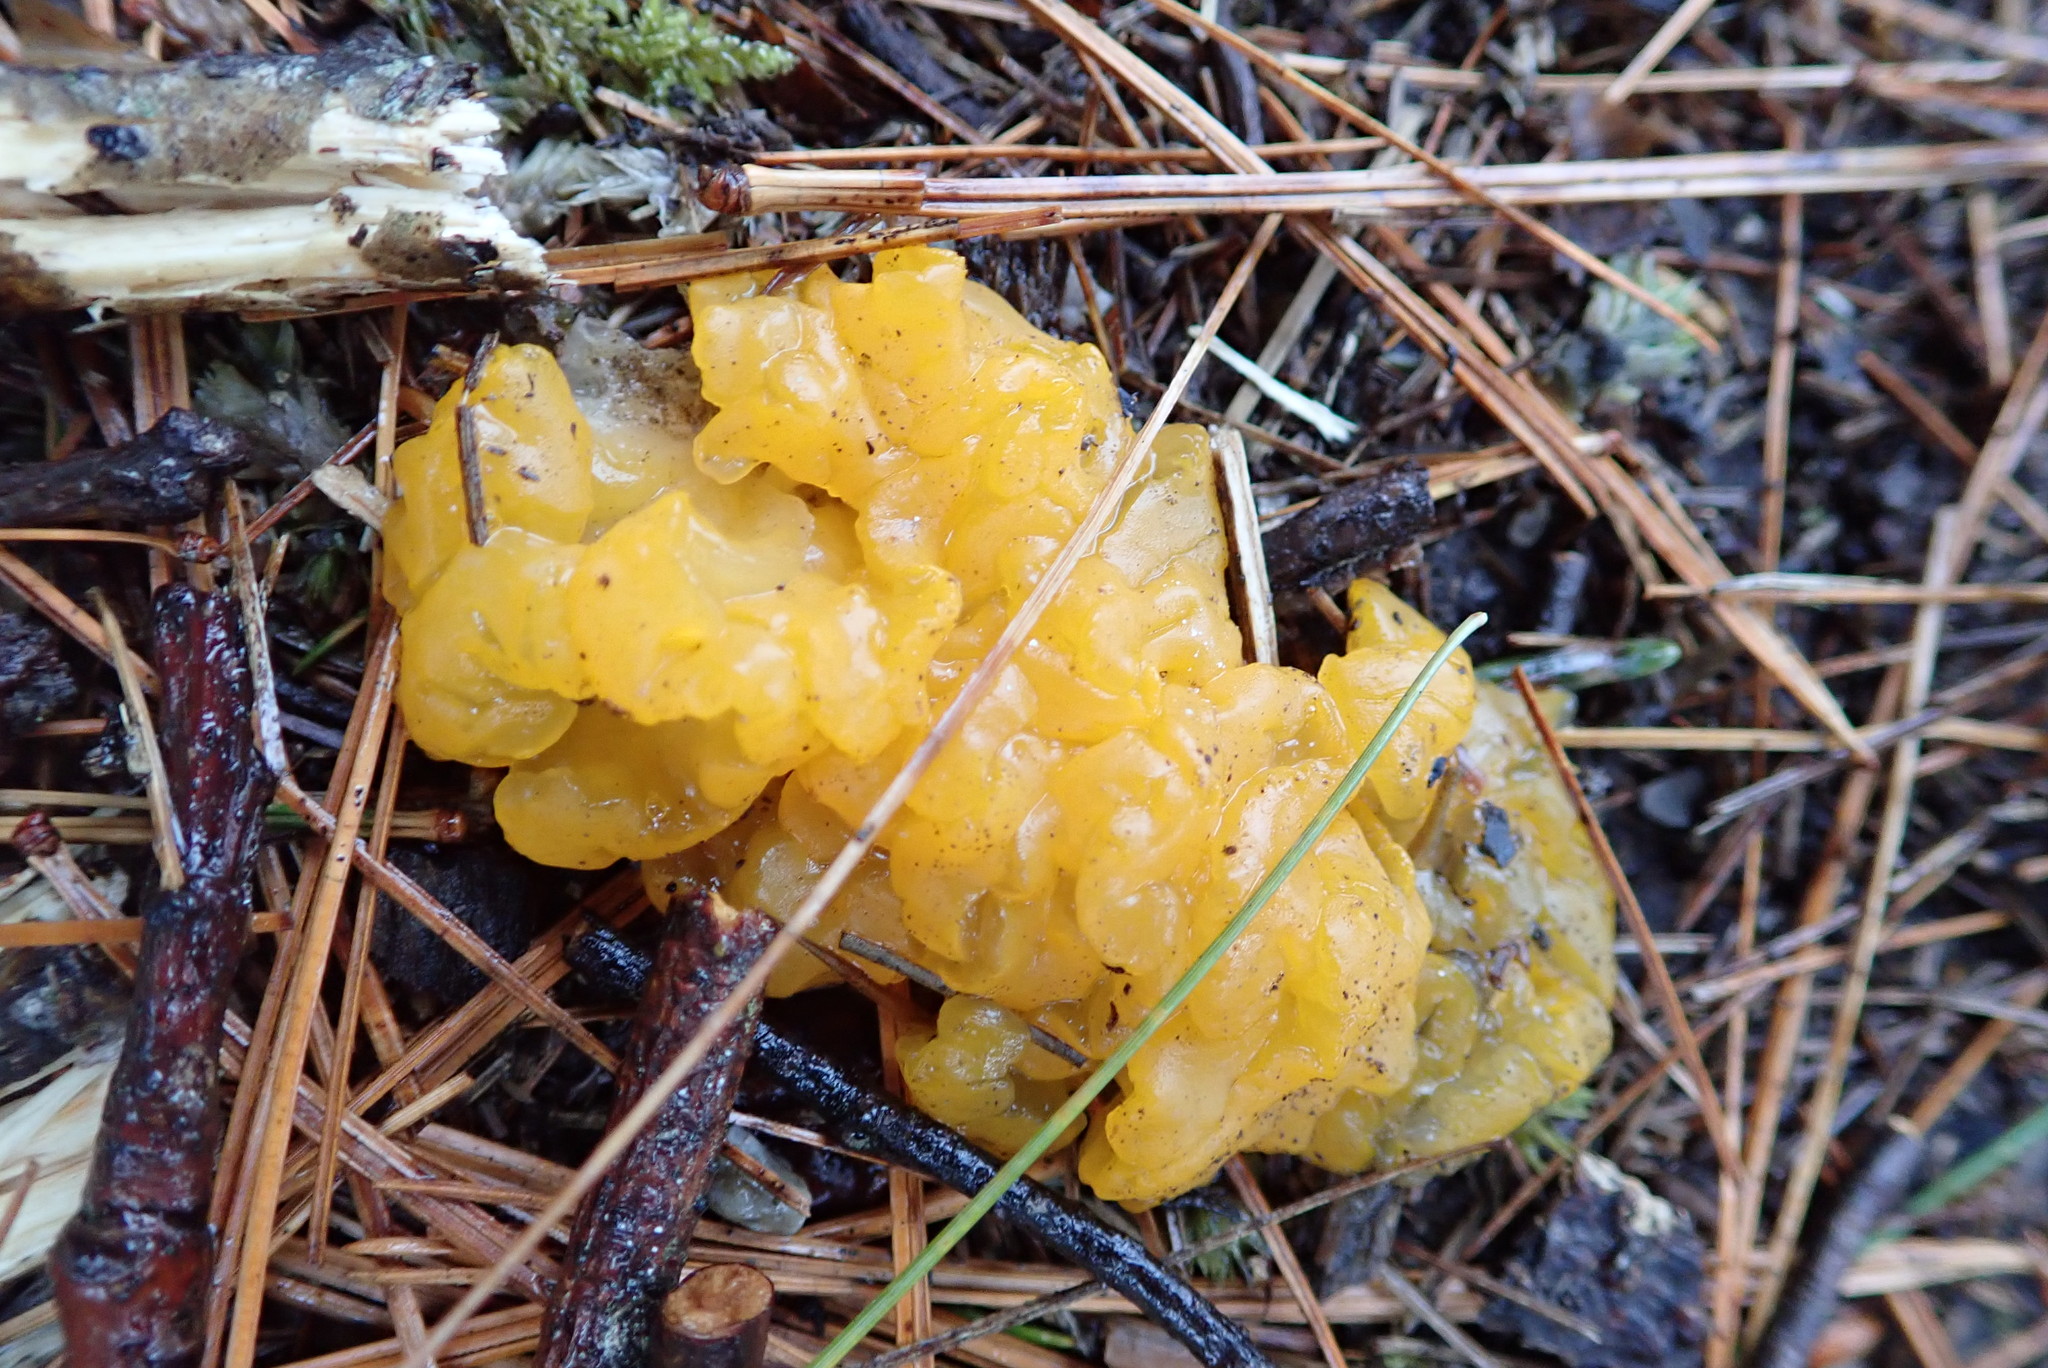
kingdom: Fungi
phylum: Basidiomycota
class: Dacrymycetes
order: Dacrymycetales
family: Dacrymycetaceae
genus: Dacrymyces
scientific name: Dacrymyces chrysospermus
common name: Orange jelly spot
